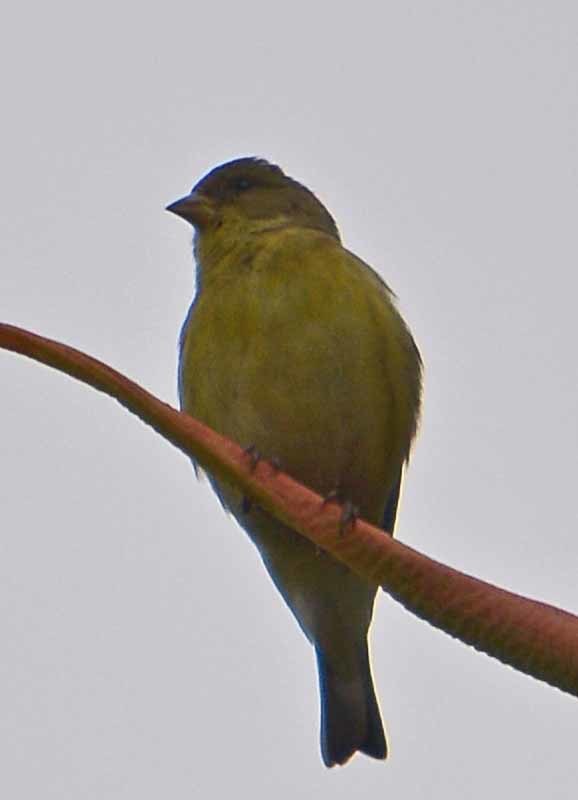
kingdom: Animalia
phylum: Chordata
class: Aves
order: Passeriformes
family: Fringillidae
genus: Spinus
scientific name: Spinus psaltria
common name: Lesser goldfinch
